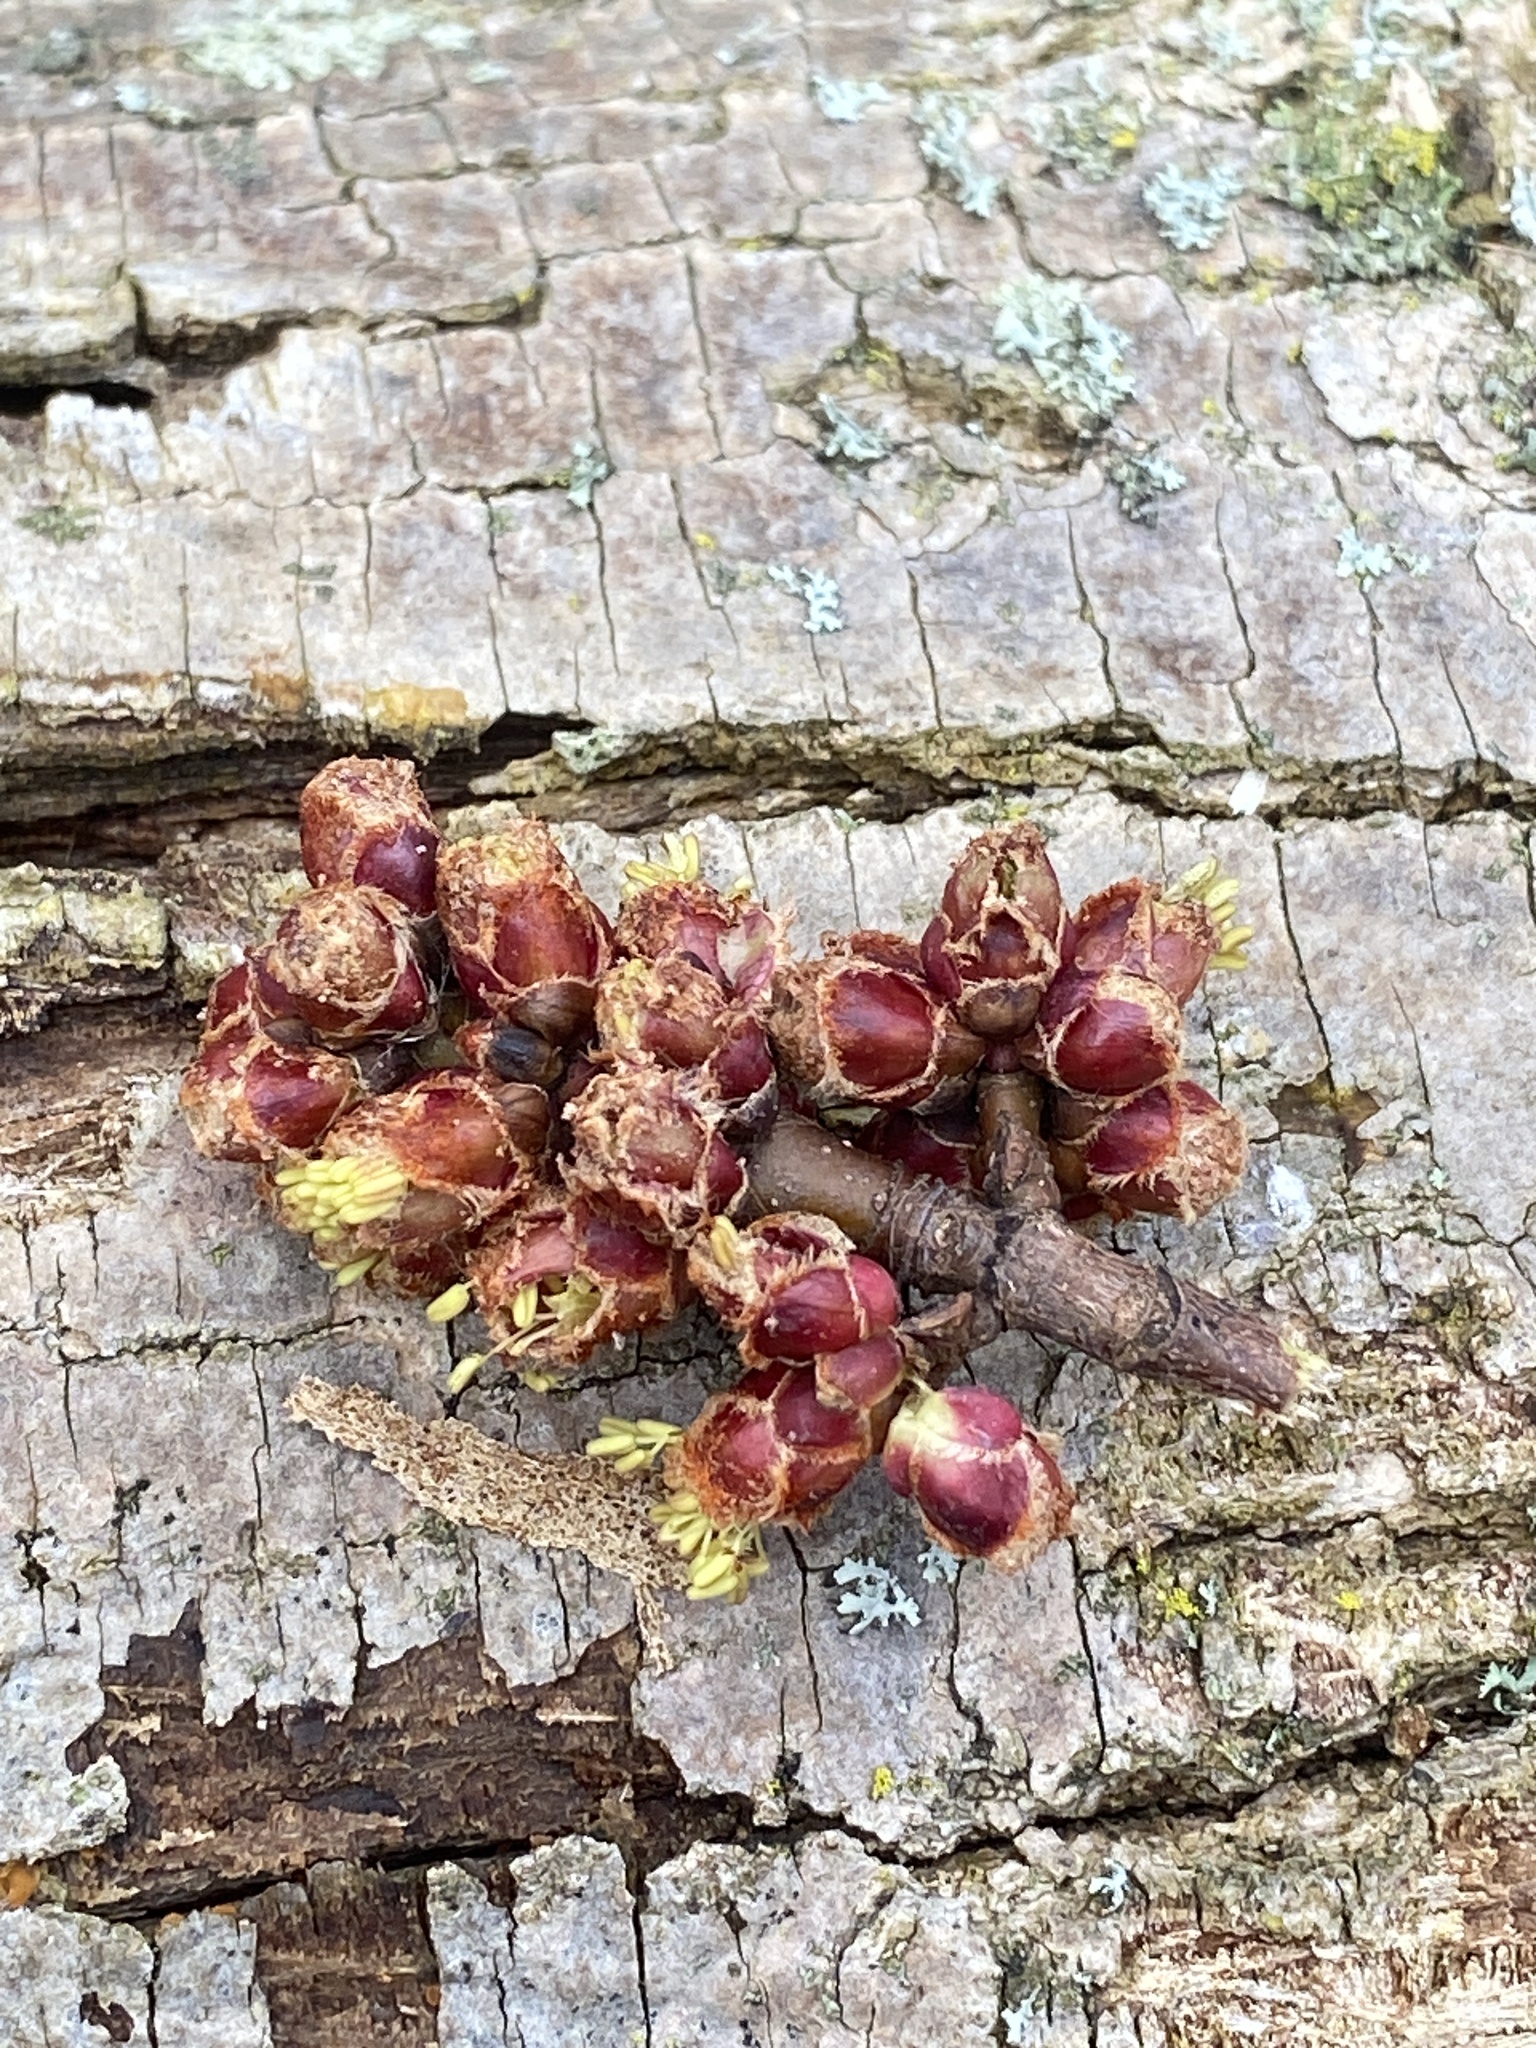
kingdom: Plantae
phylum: Tracheophyta
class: Magnoliopsida
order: Sapindales
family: Sapindaceae
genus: Acer
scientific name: Acer saccharinum
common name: Silver maple
